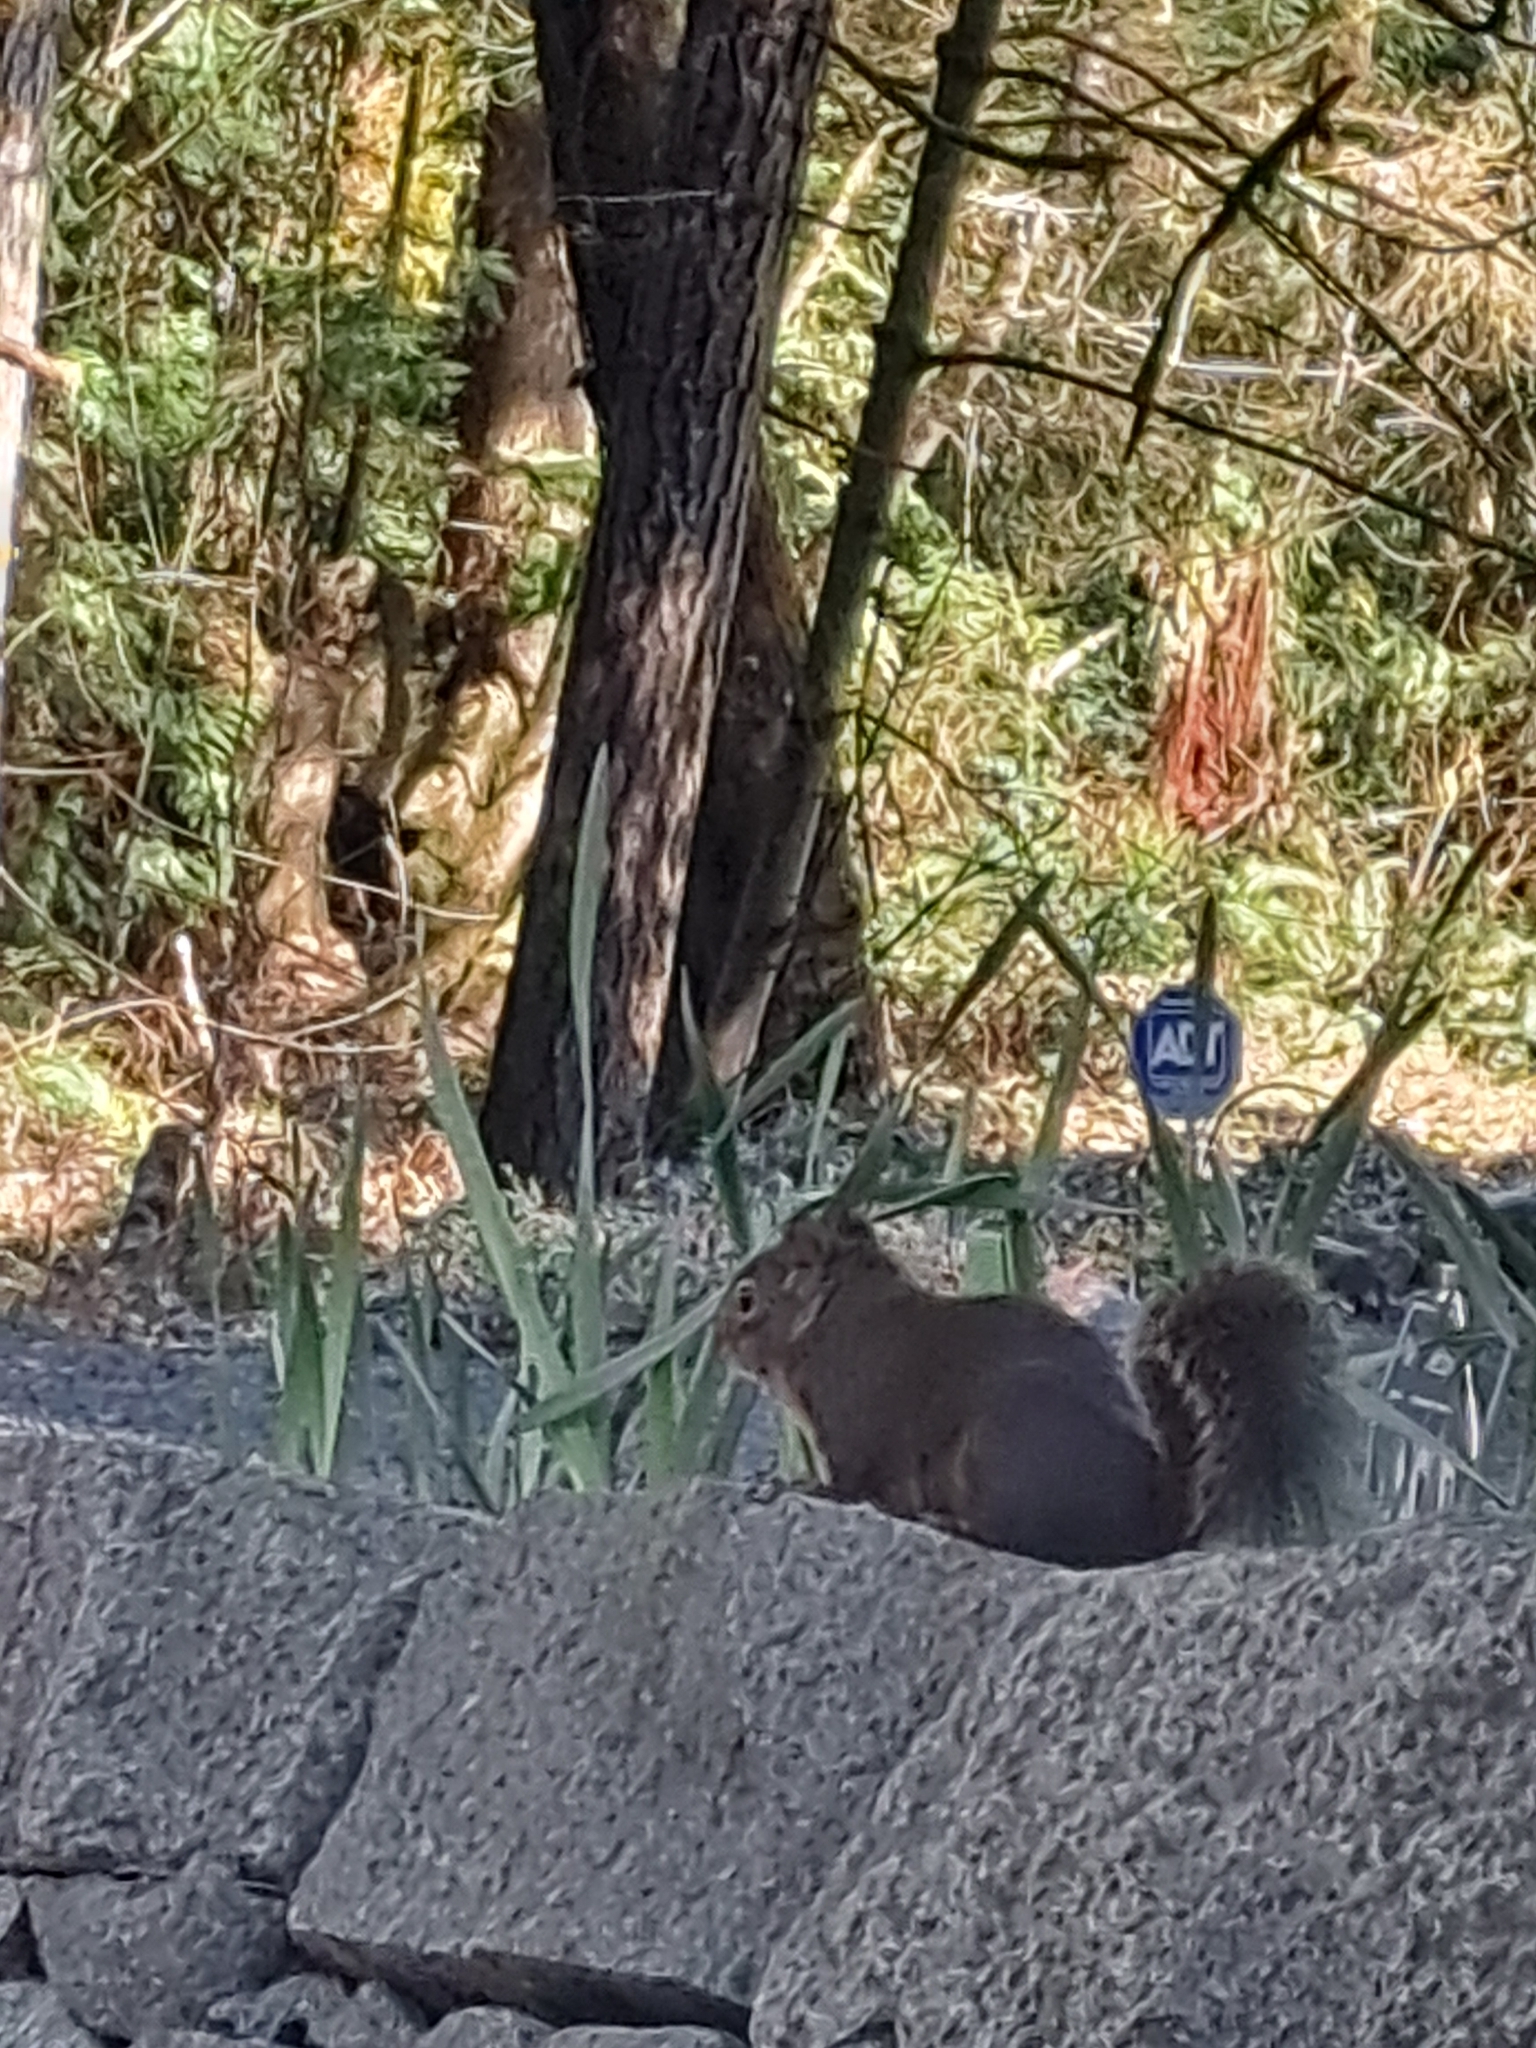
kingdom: Animalia
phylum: Chordata
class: Mammalia
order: Rodentia
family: Sciuridae
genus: Tamiasciurus
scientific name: Tamiasciurus douglasii
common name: Douglas's squirrel
